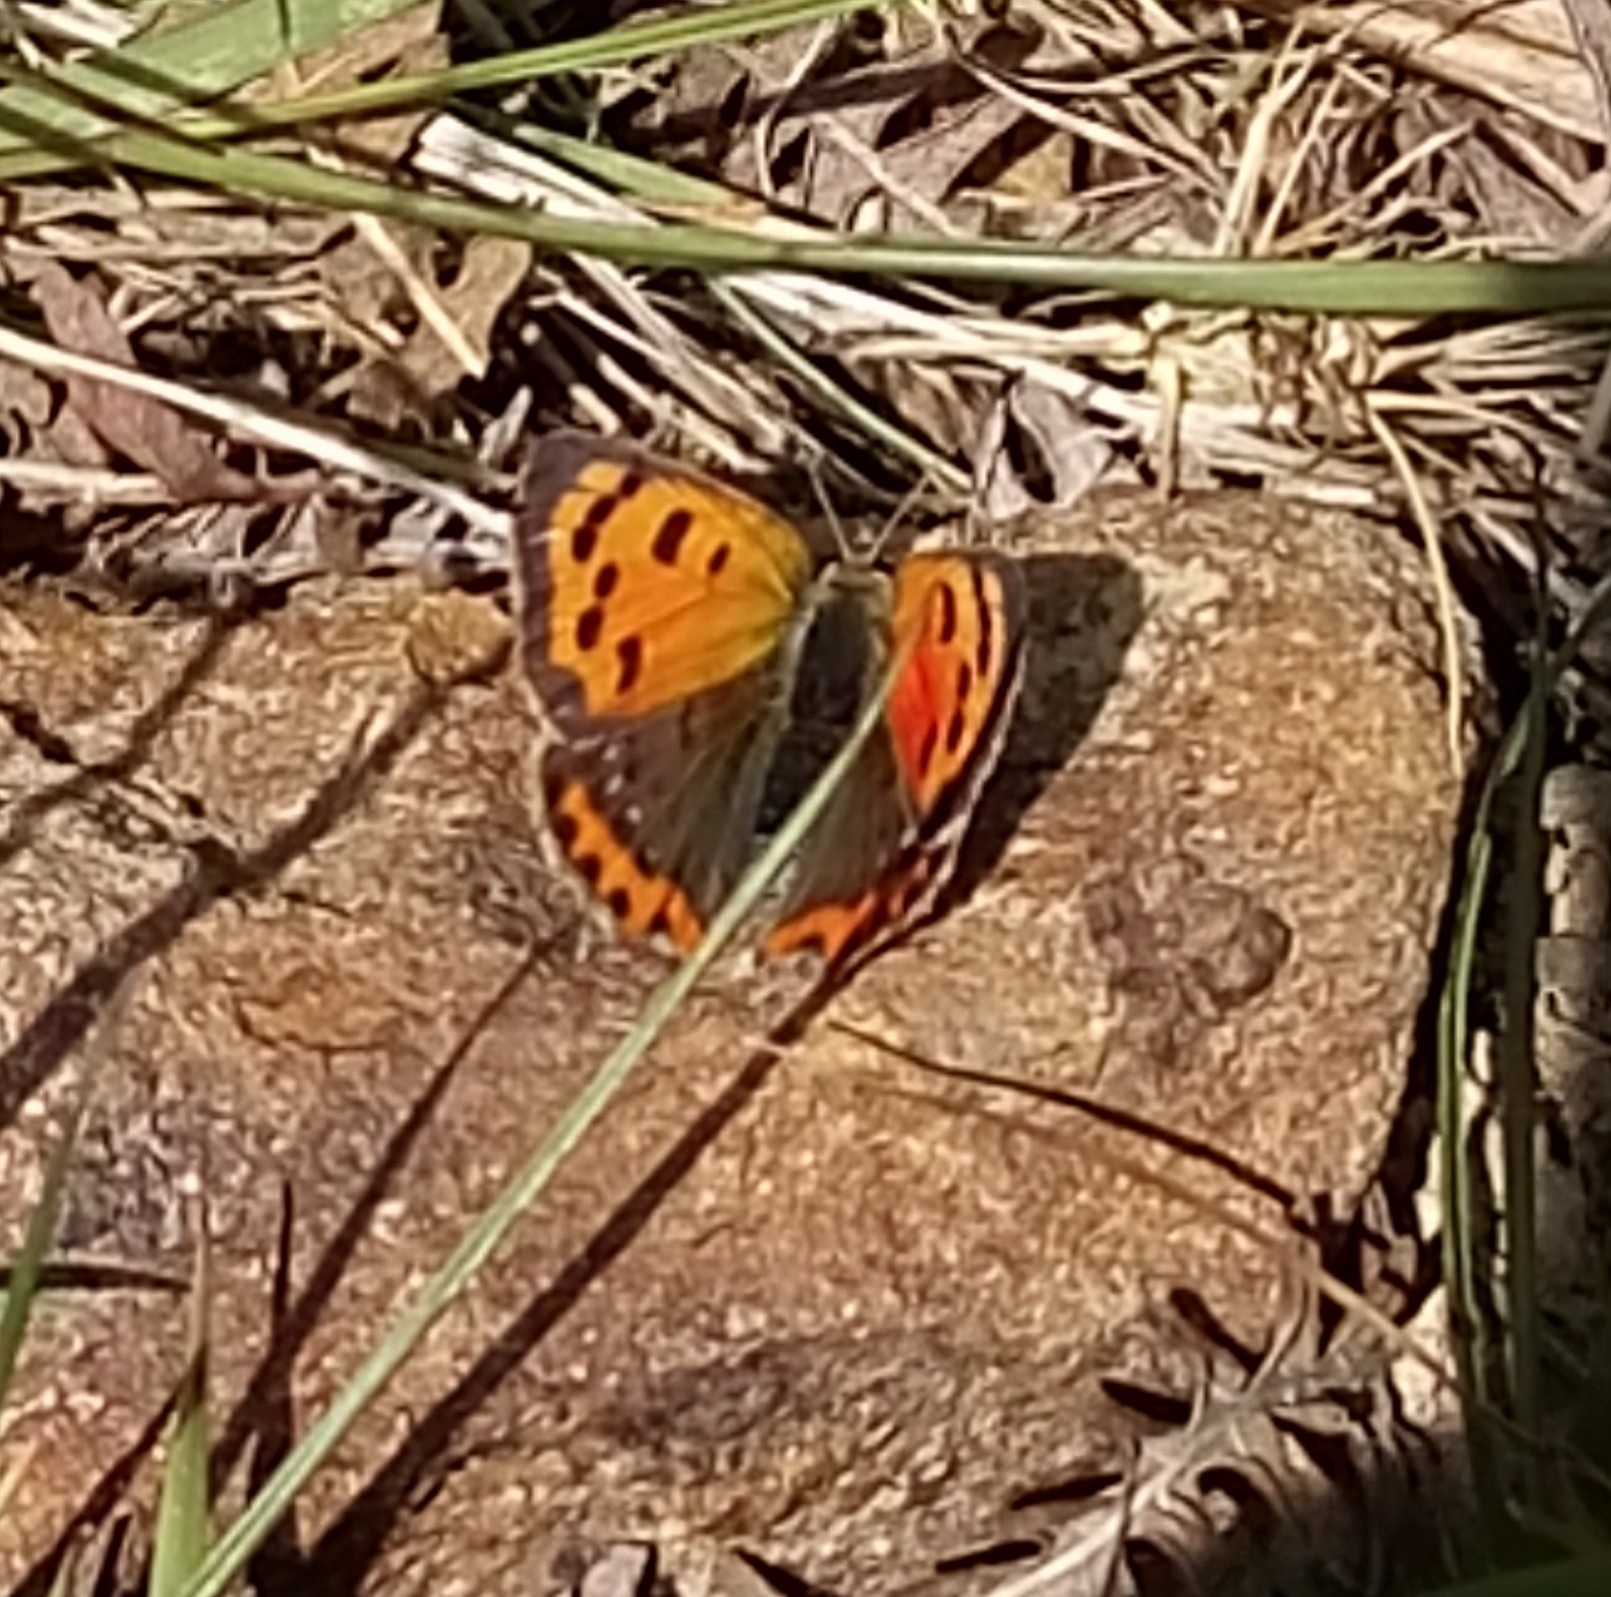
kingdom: Animalia
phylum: Arthropoda
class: Insecta
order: Lepidoptera
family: Lycaenidae
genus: Lycaena
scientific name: Lycaena phlaeas
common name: Small copper
